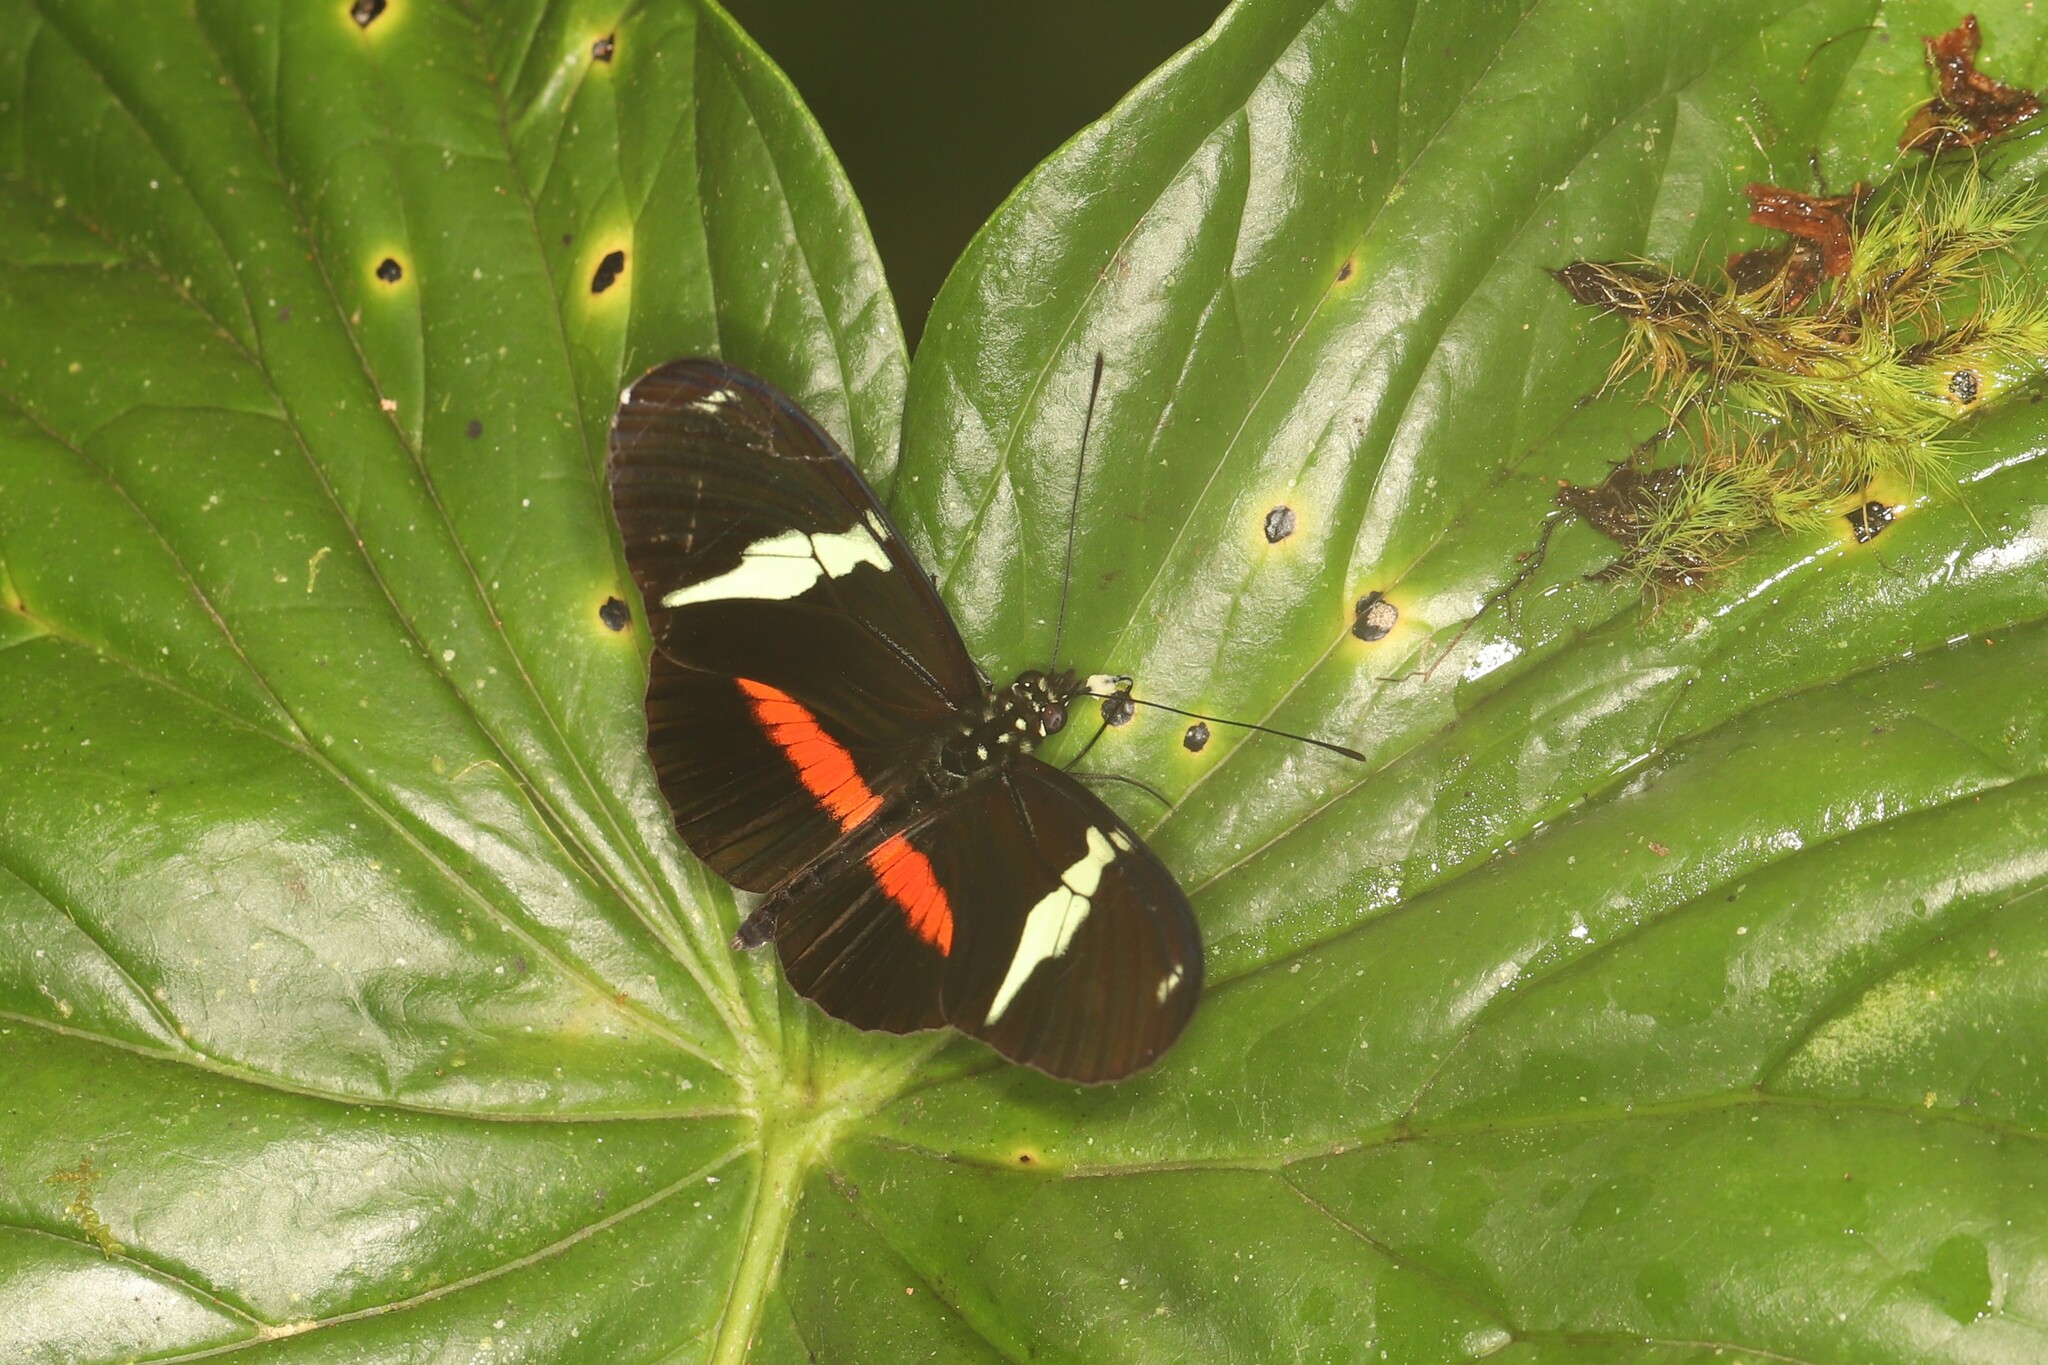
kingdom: Animalia
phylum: Arthropoda
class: Insecta
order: Lepidoptera
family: Nymphalidae
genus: Heliconius
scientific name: Heliconius clysonymus
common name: Clysonymus longwing
